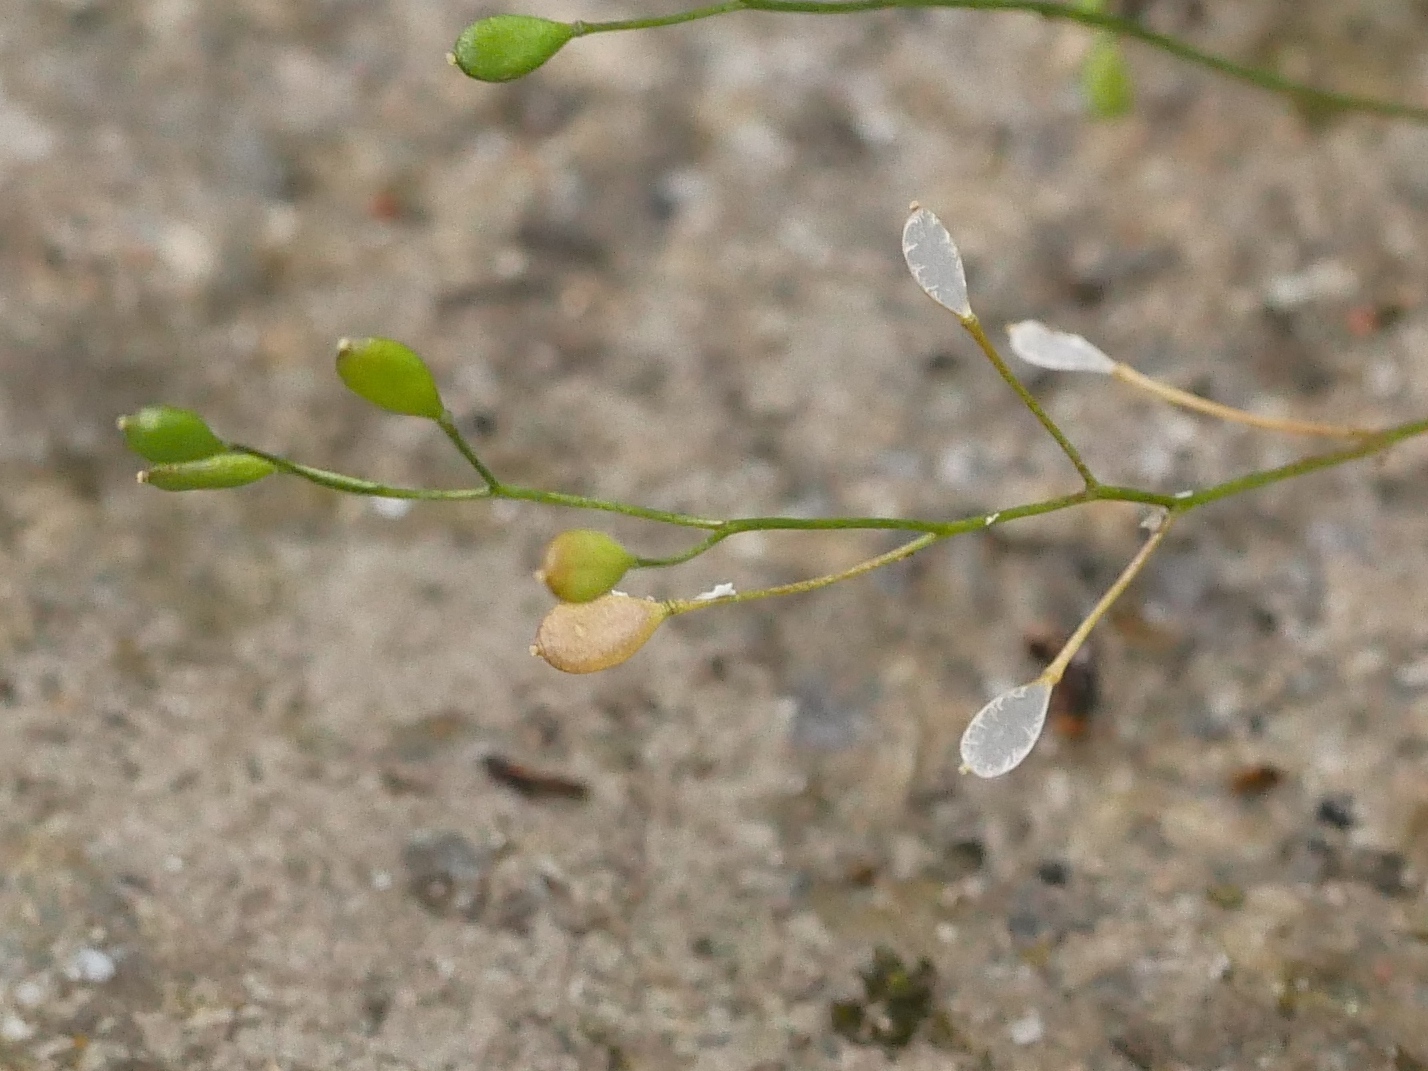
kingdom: Plantae
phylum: Tracheophyta
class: Magnoliopsida
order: Brassicales
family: Brassicaceae
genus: Draba
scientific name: Draba verna
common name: Spring draba
